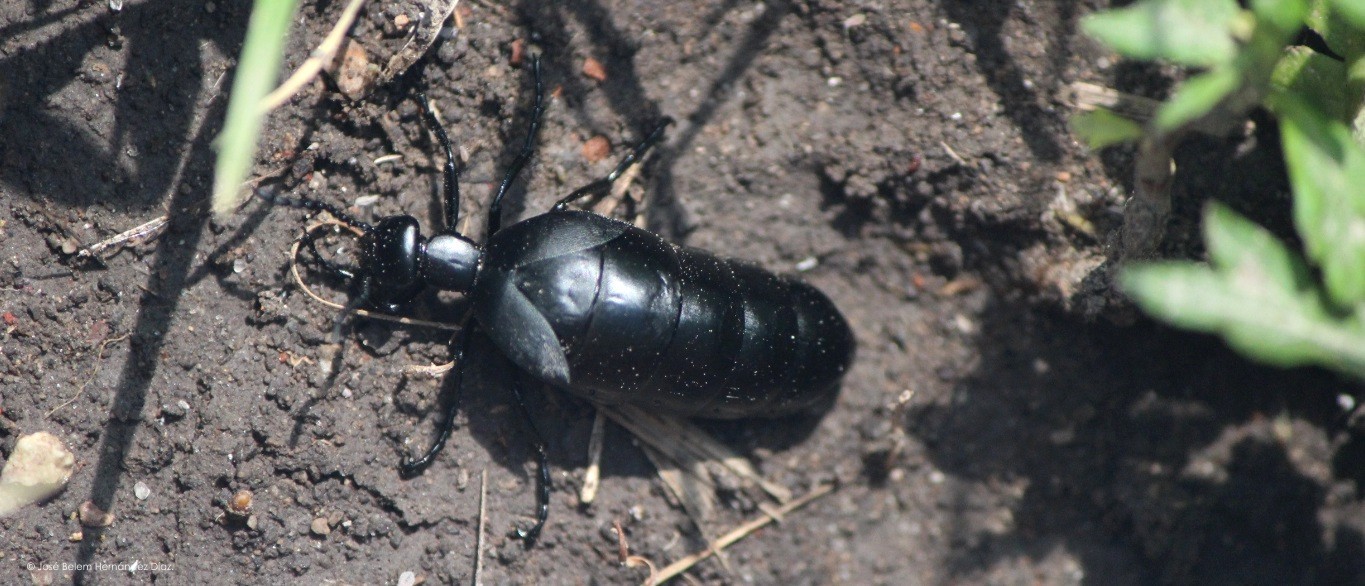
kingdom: Animalia
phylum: Arthropoda
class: Insecta
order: Coleoptera
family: Meloidae
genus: Meloe
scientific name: Meloe laevis
